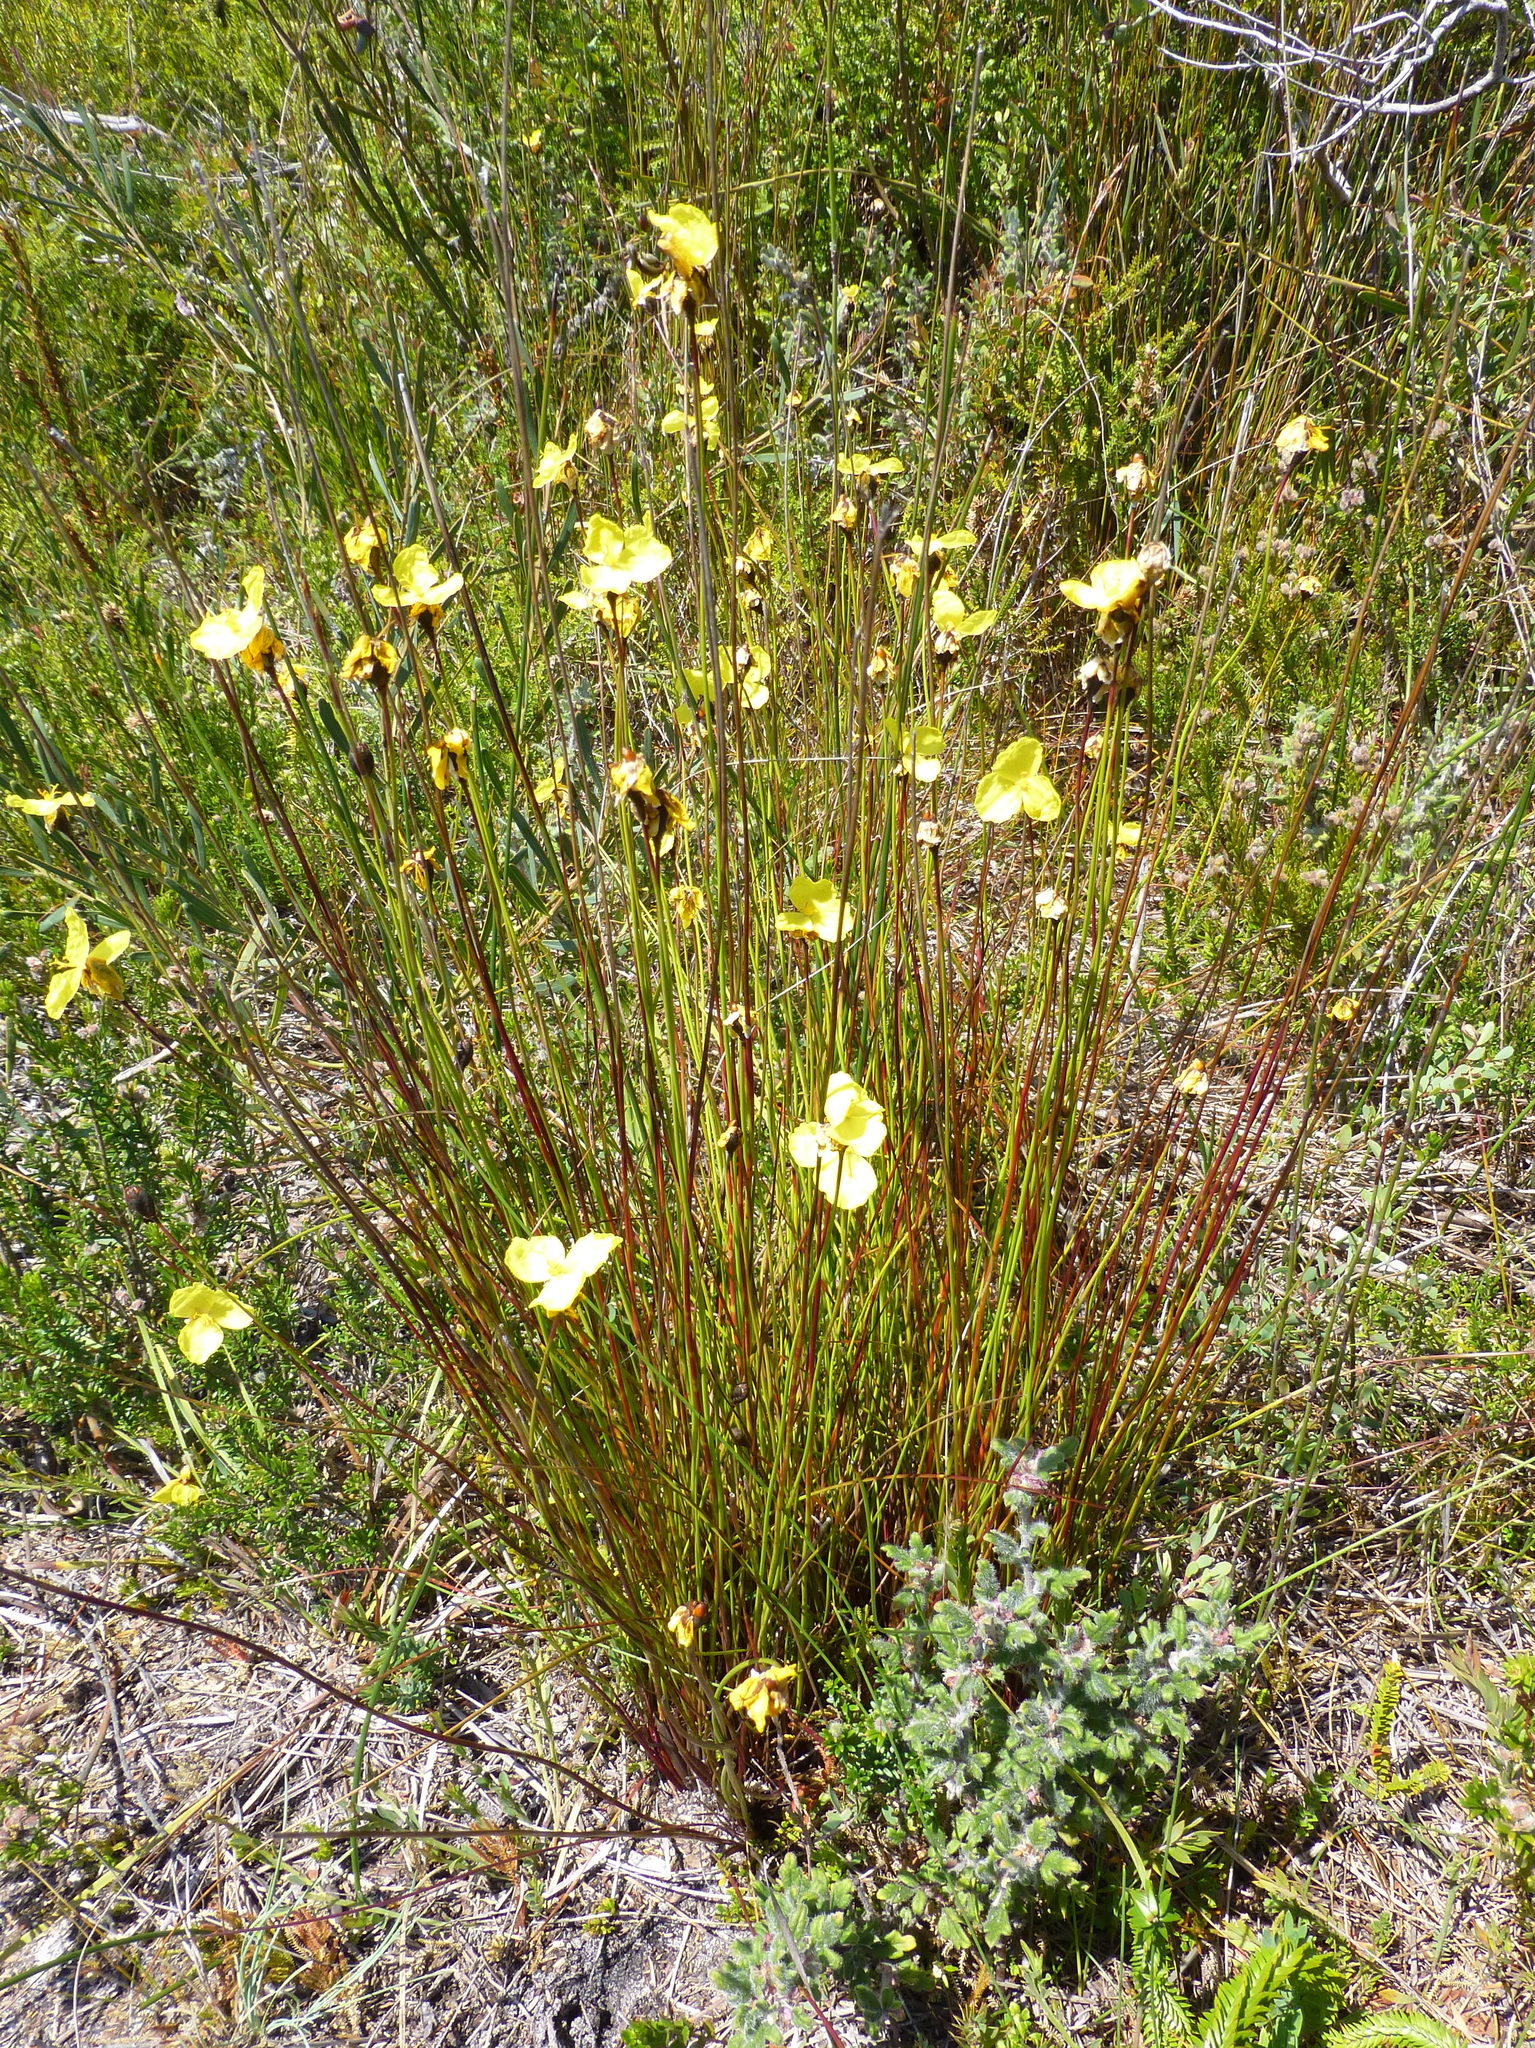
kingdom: Plantae
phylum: Tracheophyta
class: Liliopsida
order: Poales
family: Xyridaceae
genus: Xyris
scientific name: Xyris operculata
